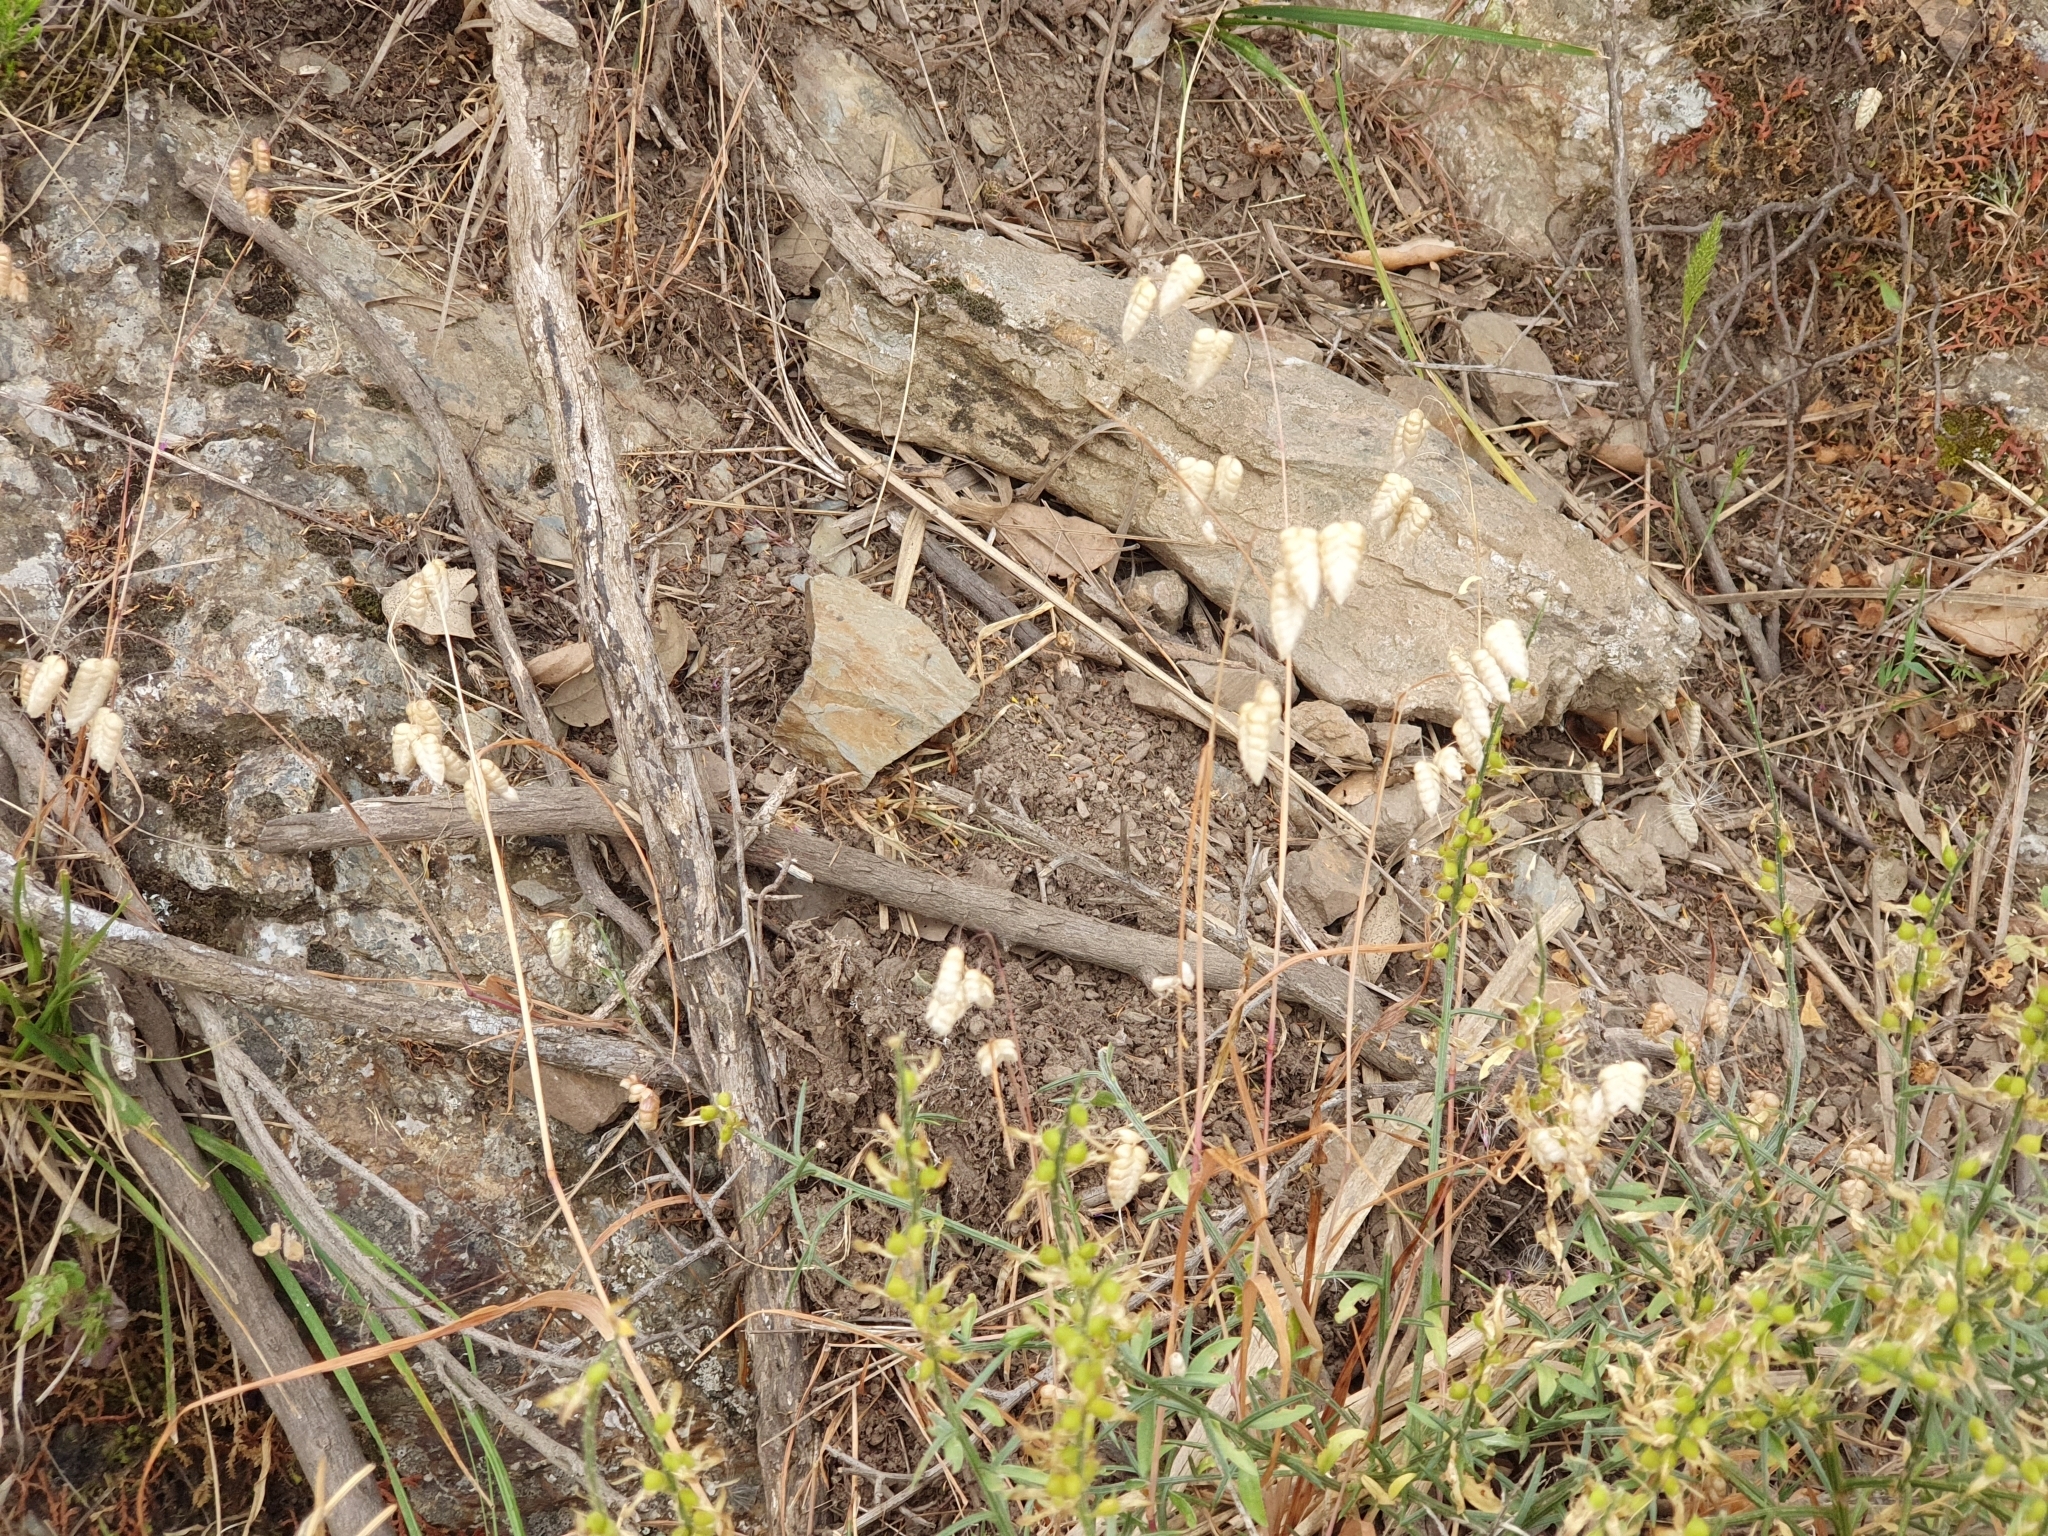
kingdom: Plantae
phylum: Tracheophyta
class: Liliopsida
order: Poales
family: Poaceae
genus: Briza
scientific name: Briza maxima
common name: Big quakinggrass
